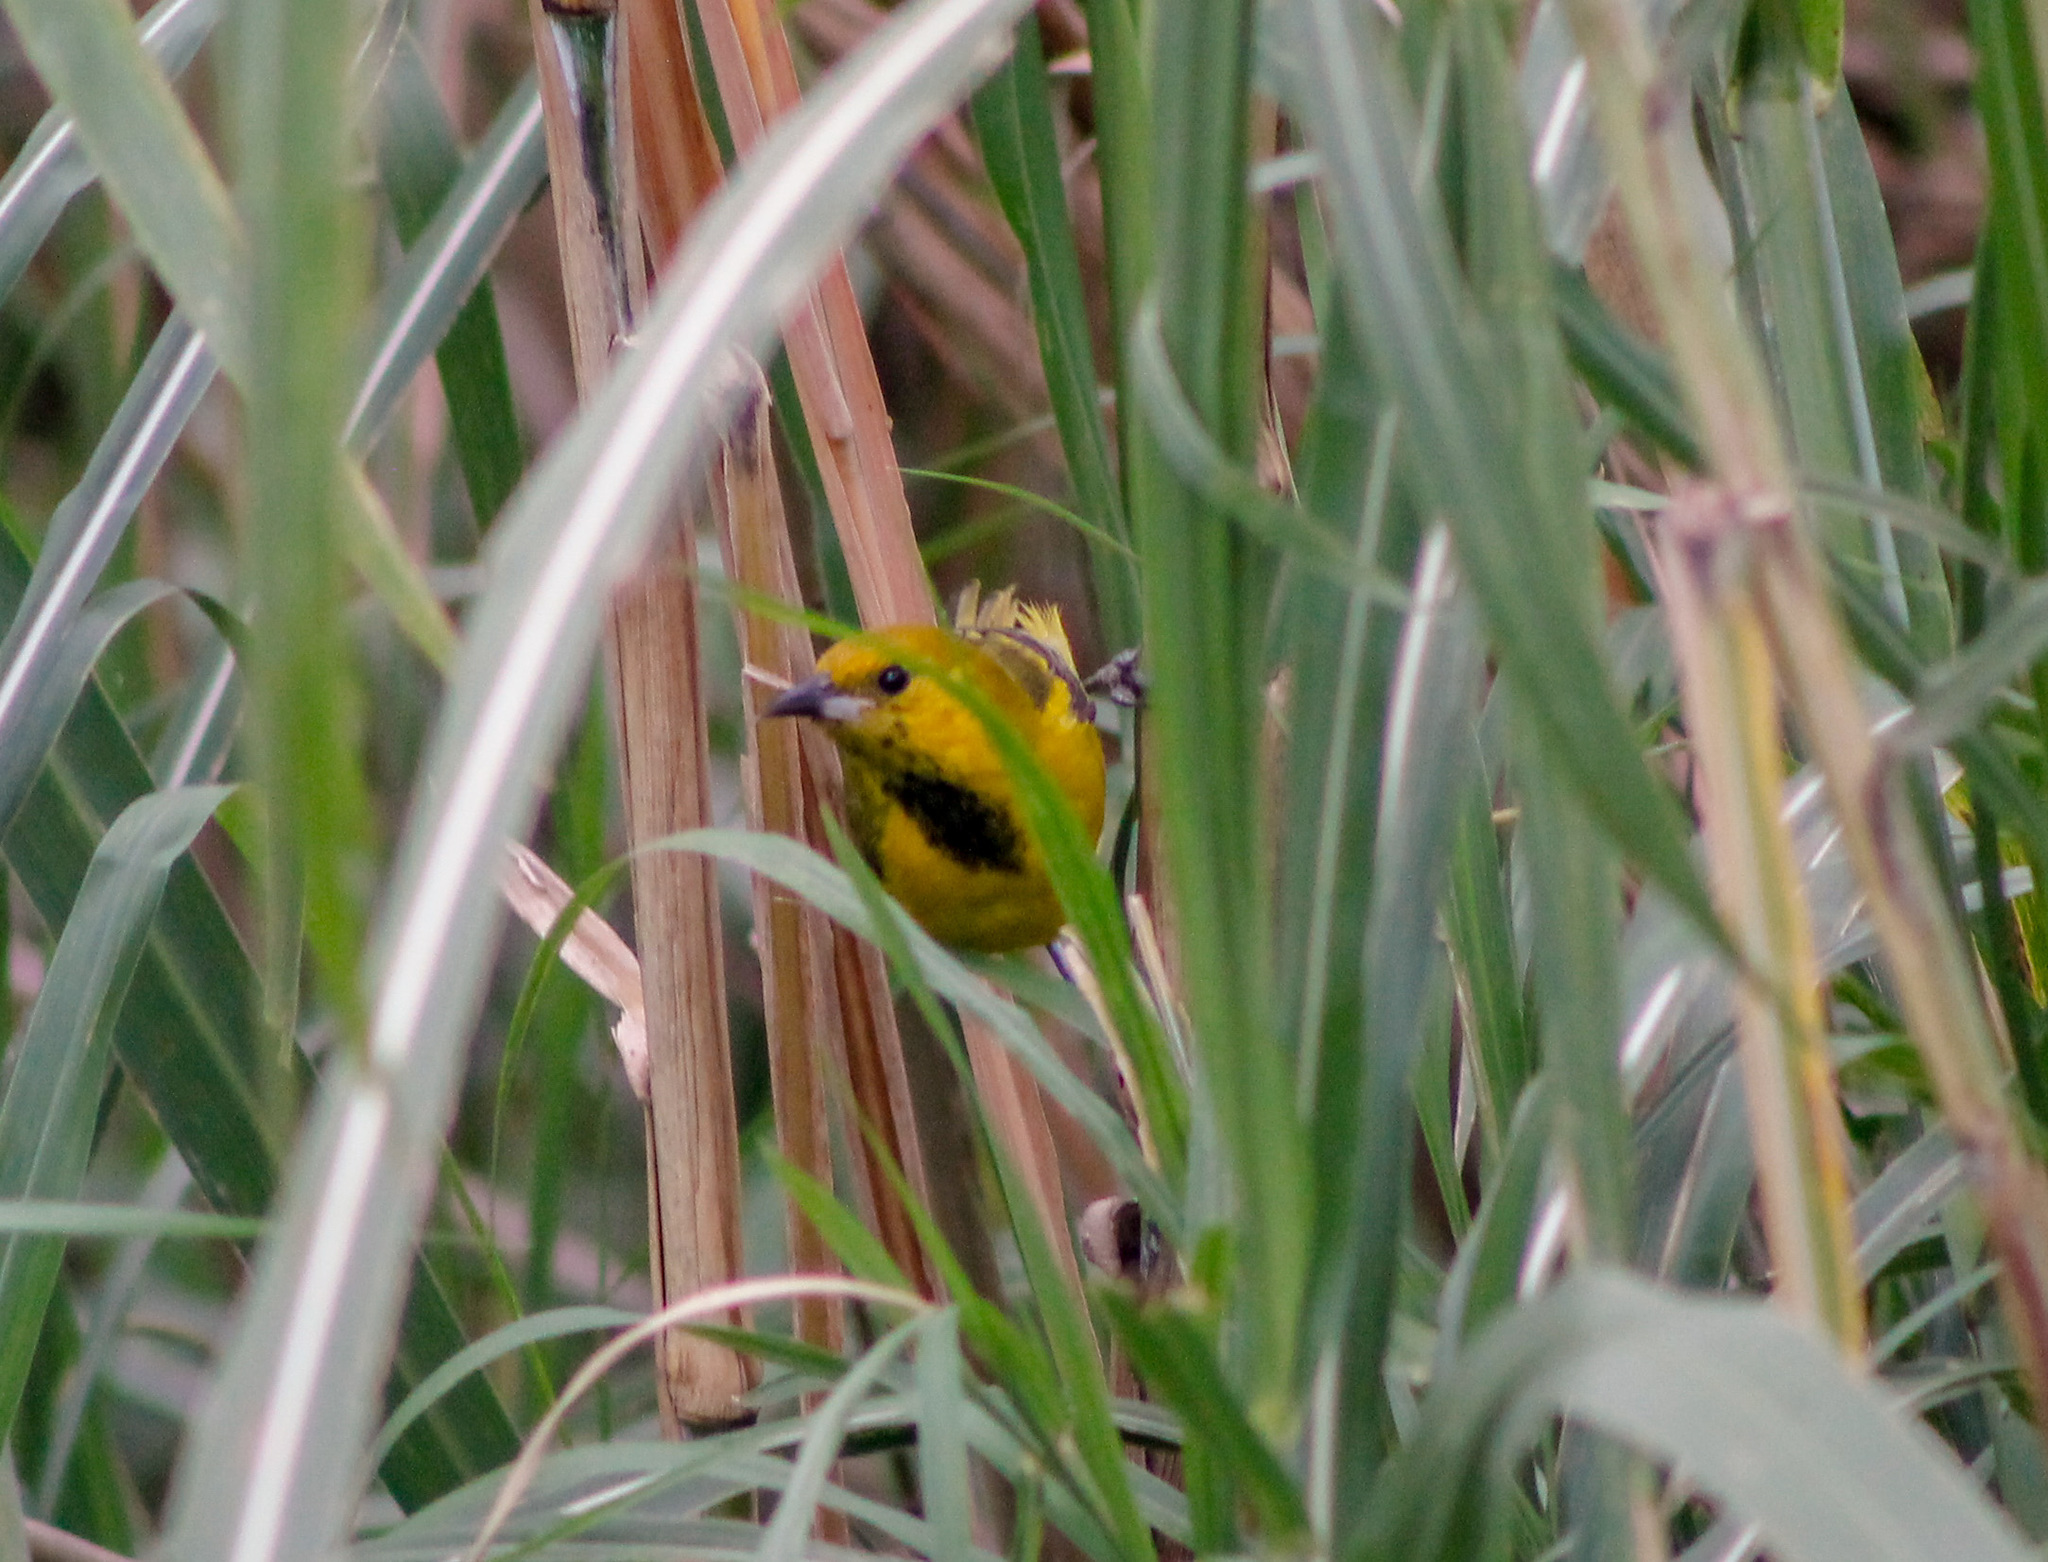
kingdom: Animalia
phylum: Chordata
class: Aves
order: Passeriformes
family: Icteridae
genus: Icterus
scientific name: Icterus nigrogularis
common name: Yellow oriole
